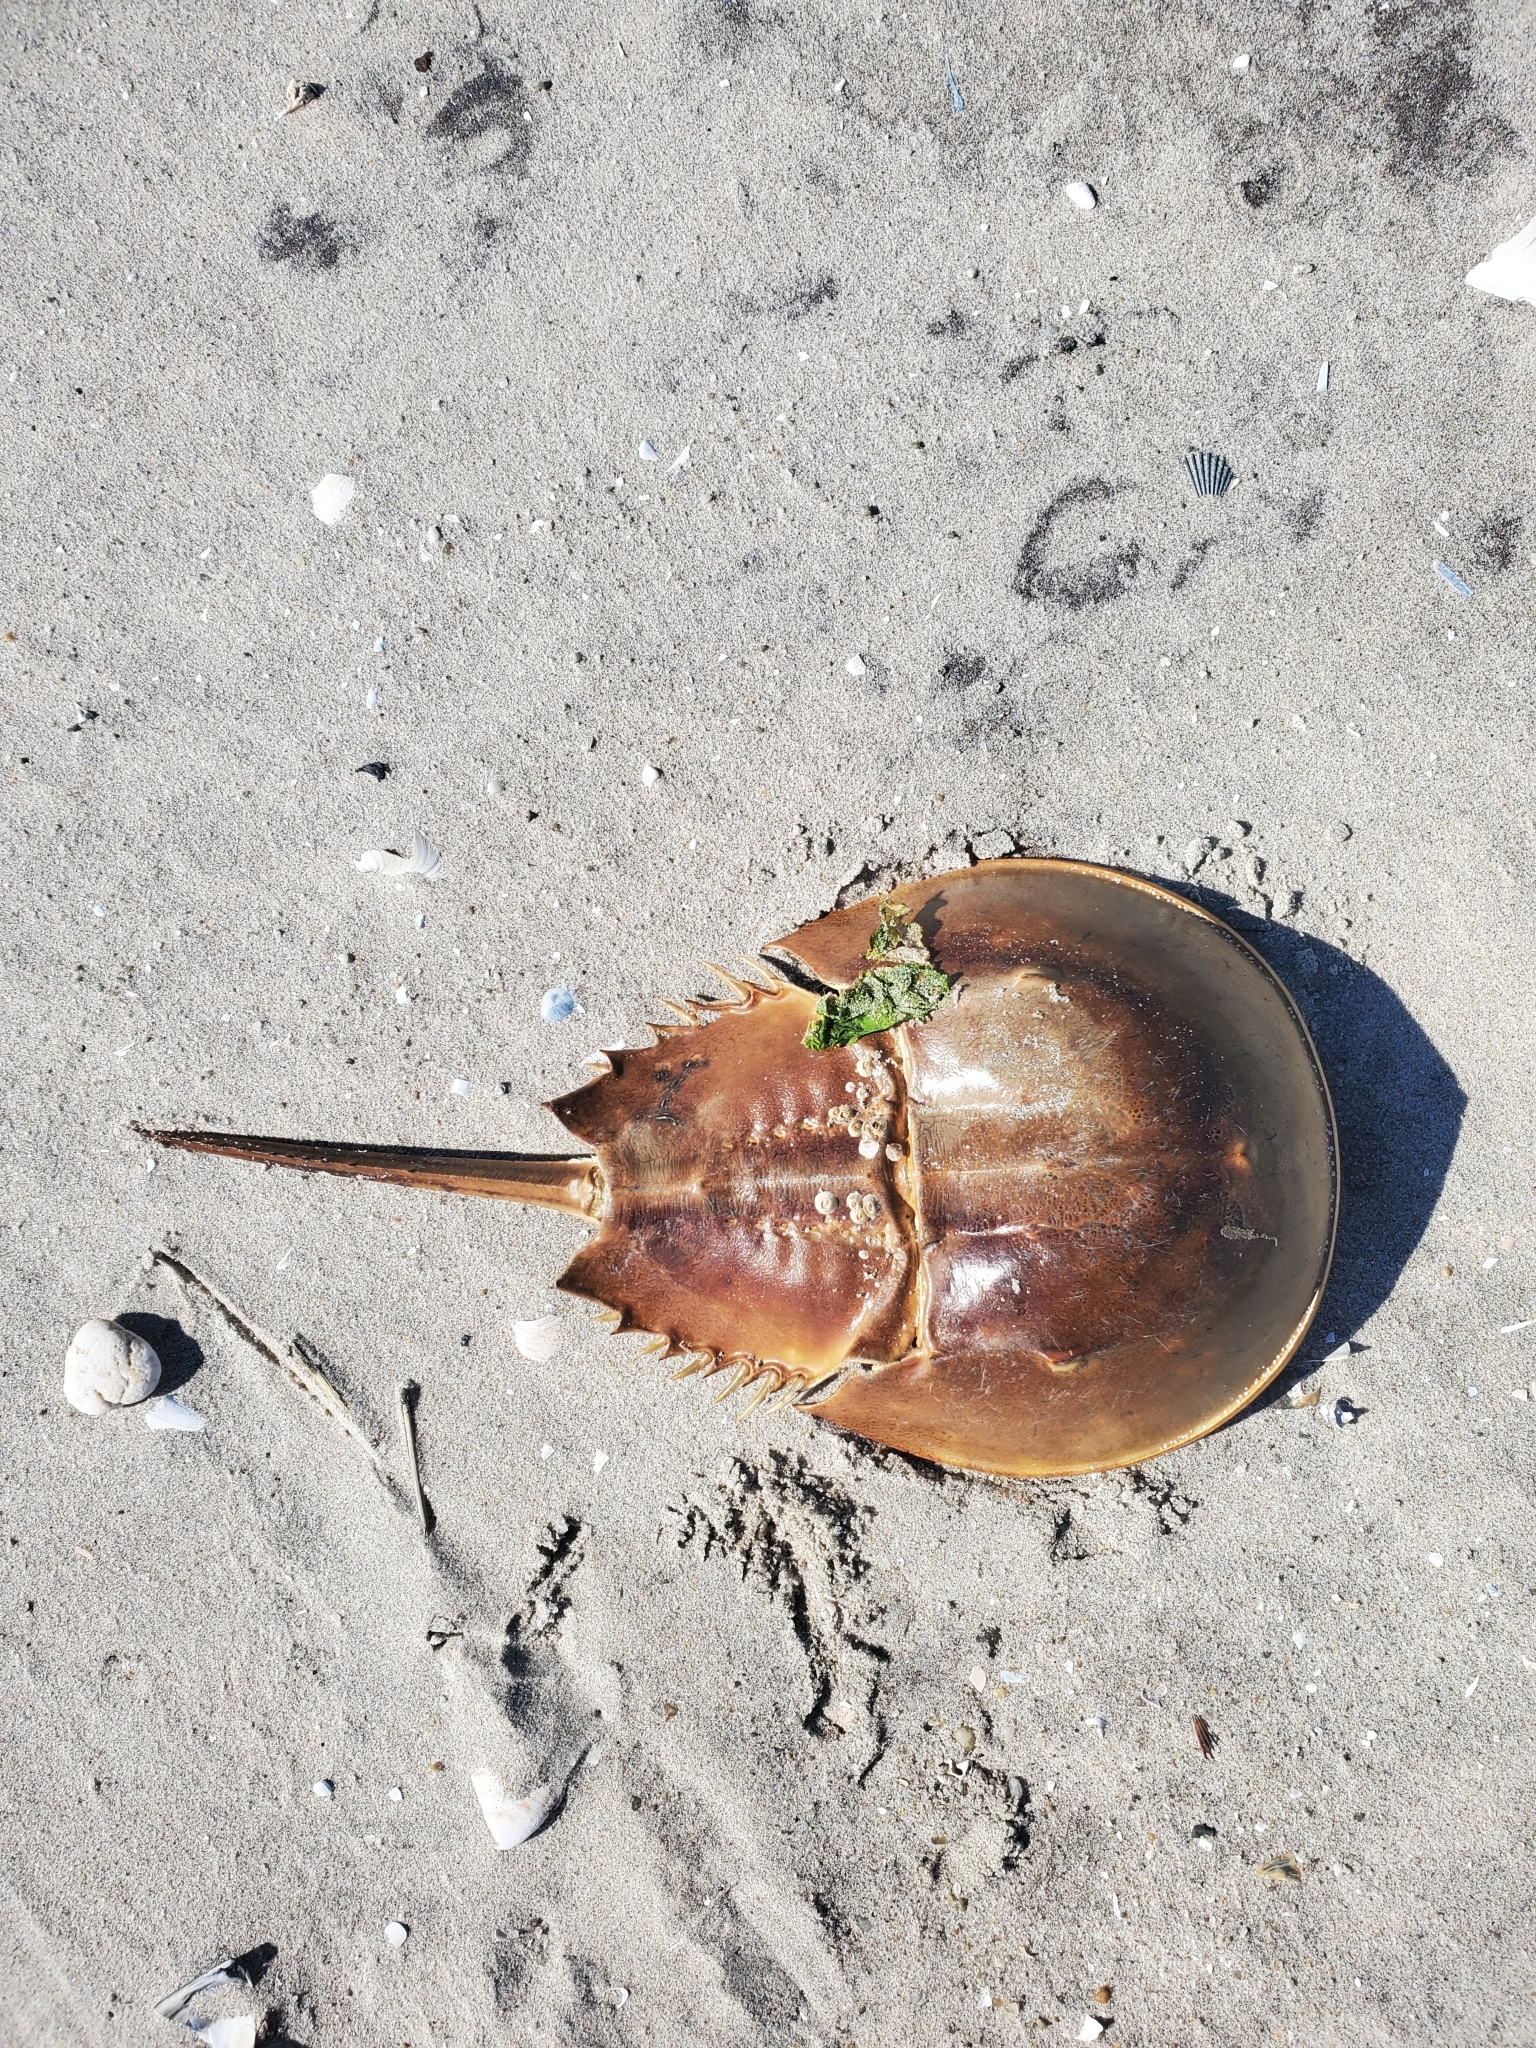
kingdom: Animalia
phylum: Arthropoda
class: Merostomata
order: Xiphosurida
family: Limulidae
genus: Limulus
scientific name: Limulus polyphemus
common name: Horseshoe crab
